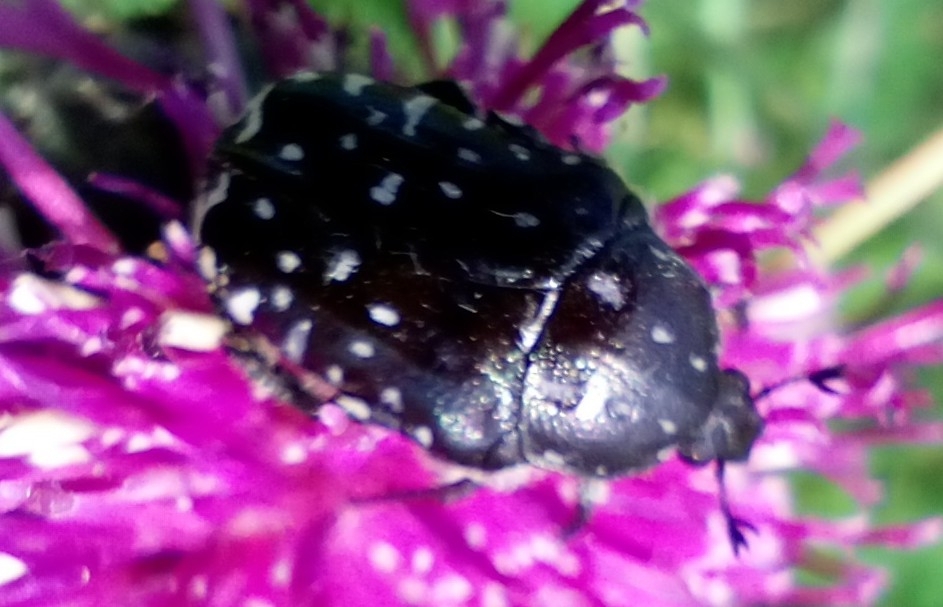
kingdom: Animalia
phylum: Arthropoda
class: Insecta
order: Coleoptera
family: Scarabaeidae
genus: Oxythyrea
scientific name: Oxythyrea funesta
